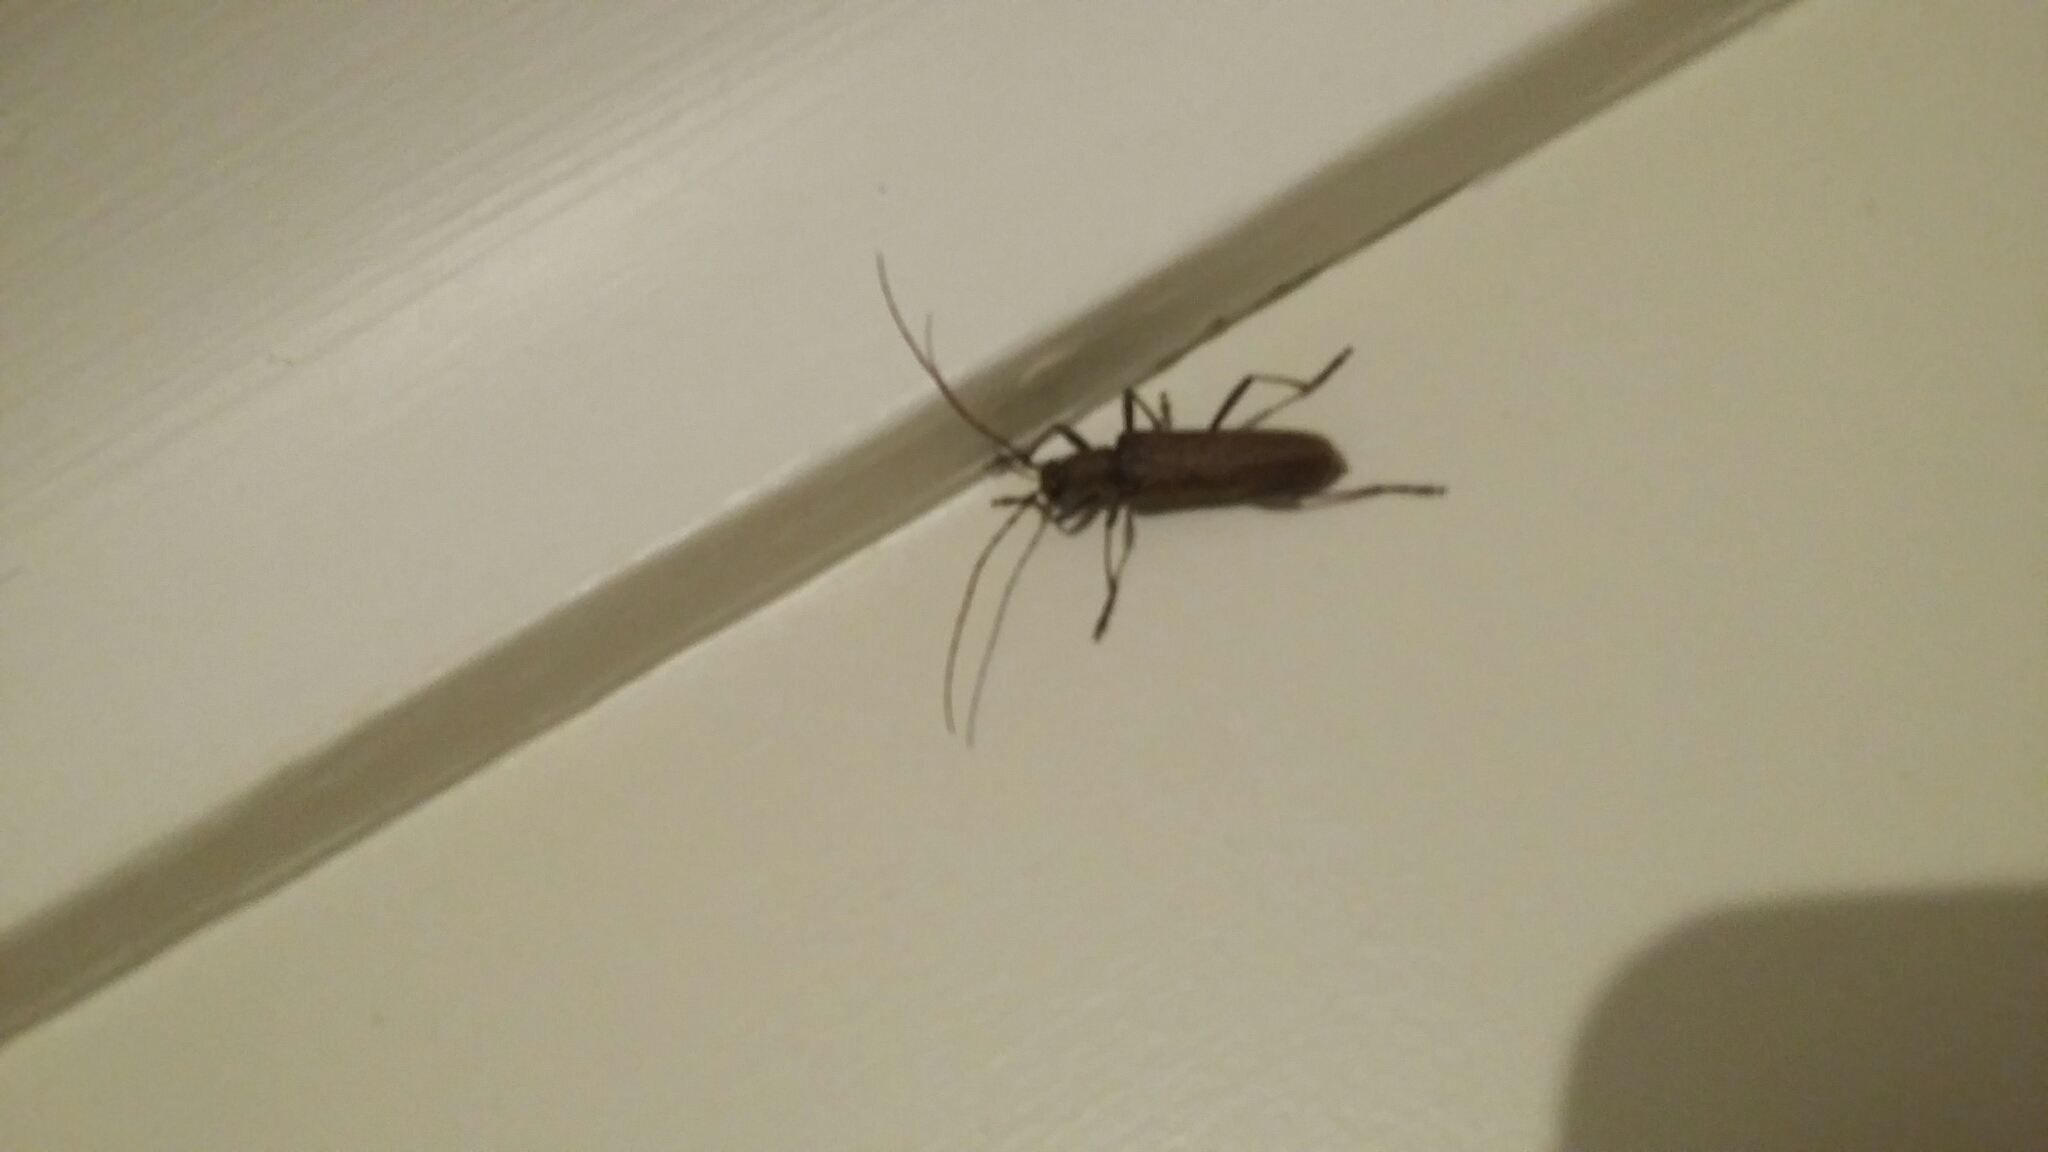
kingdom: Animalia
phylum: Arthropoda
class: Insecta
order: Coleoptera
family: Cerambycidae
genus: Oemona
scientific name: Oemona hirta
